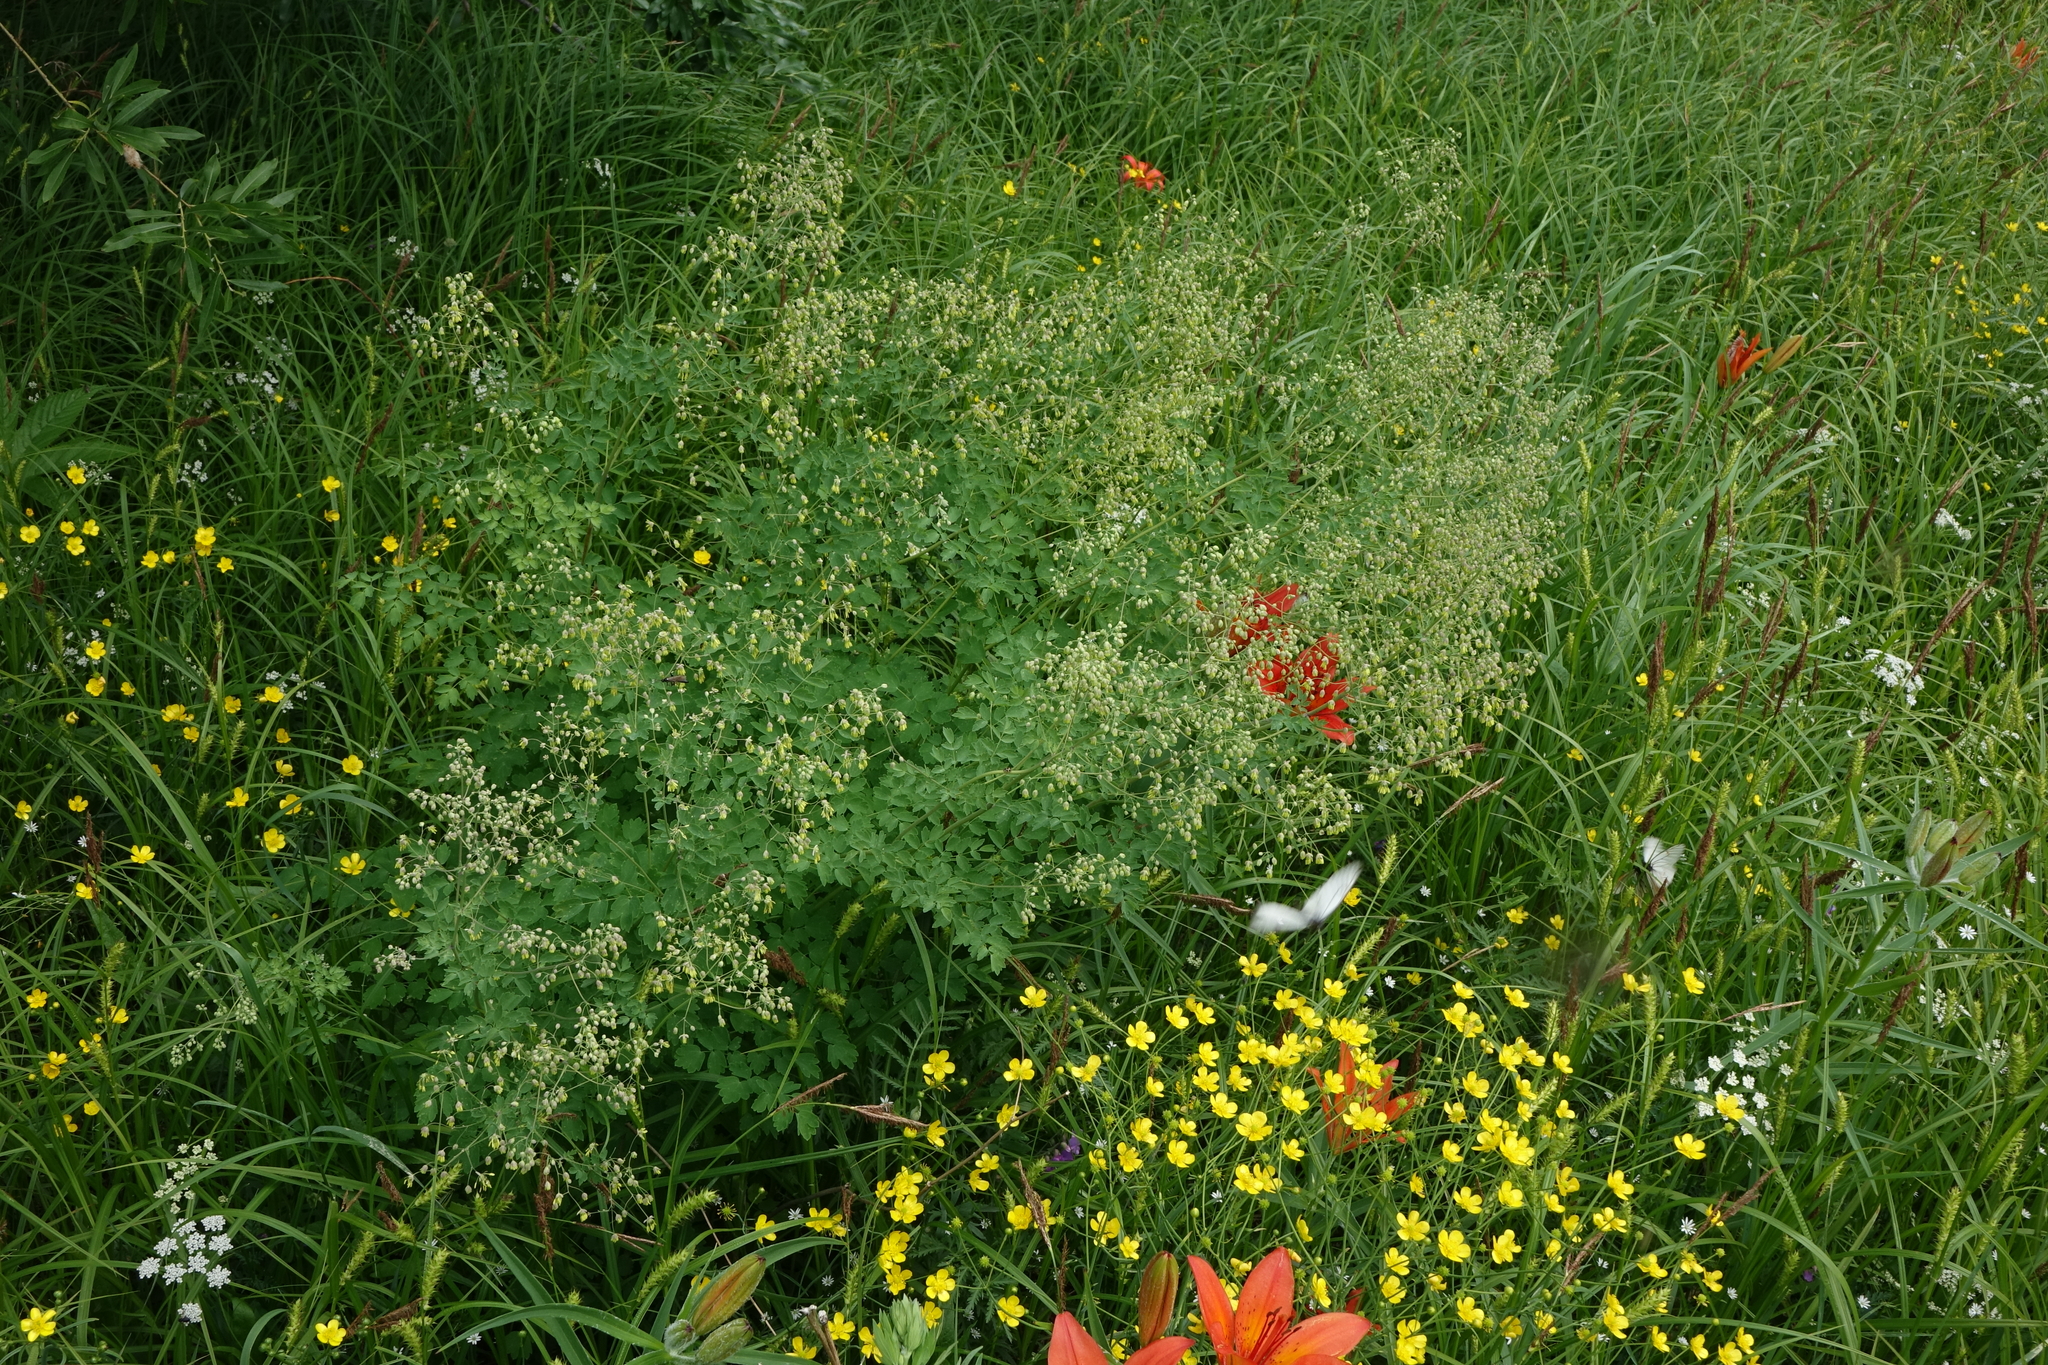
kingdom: Plantae
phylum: Tracheophyta
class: Magnoliopsida
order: Ranunculales
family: Ranunculaceae
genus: Thalictrum
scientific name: Thalictrum minus
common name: Lesser meadow-rue
